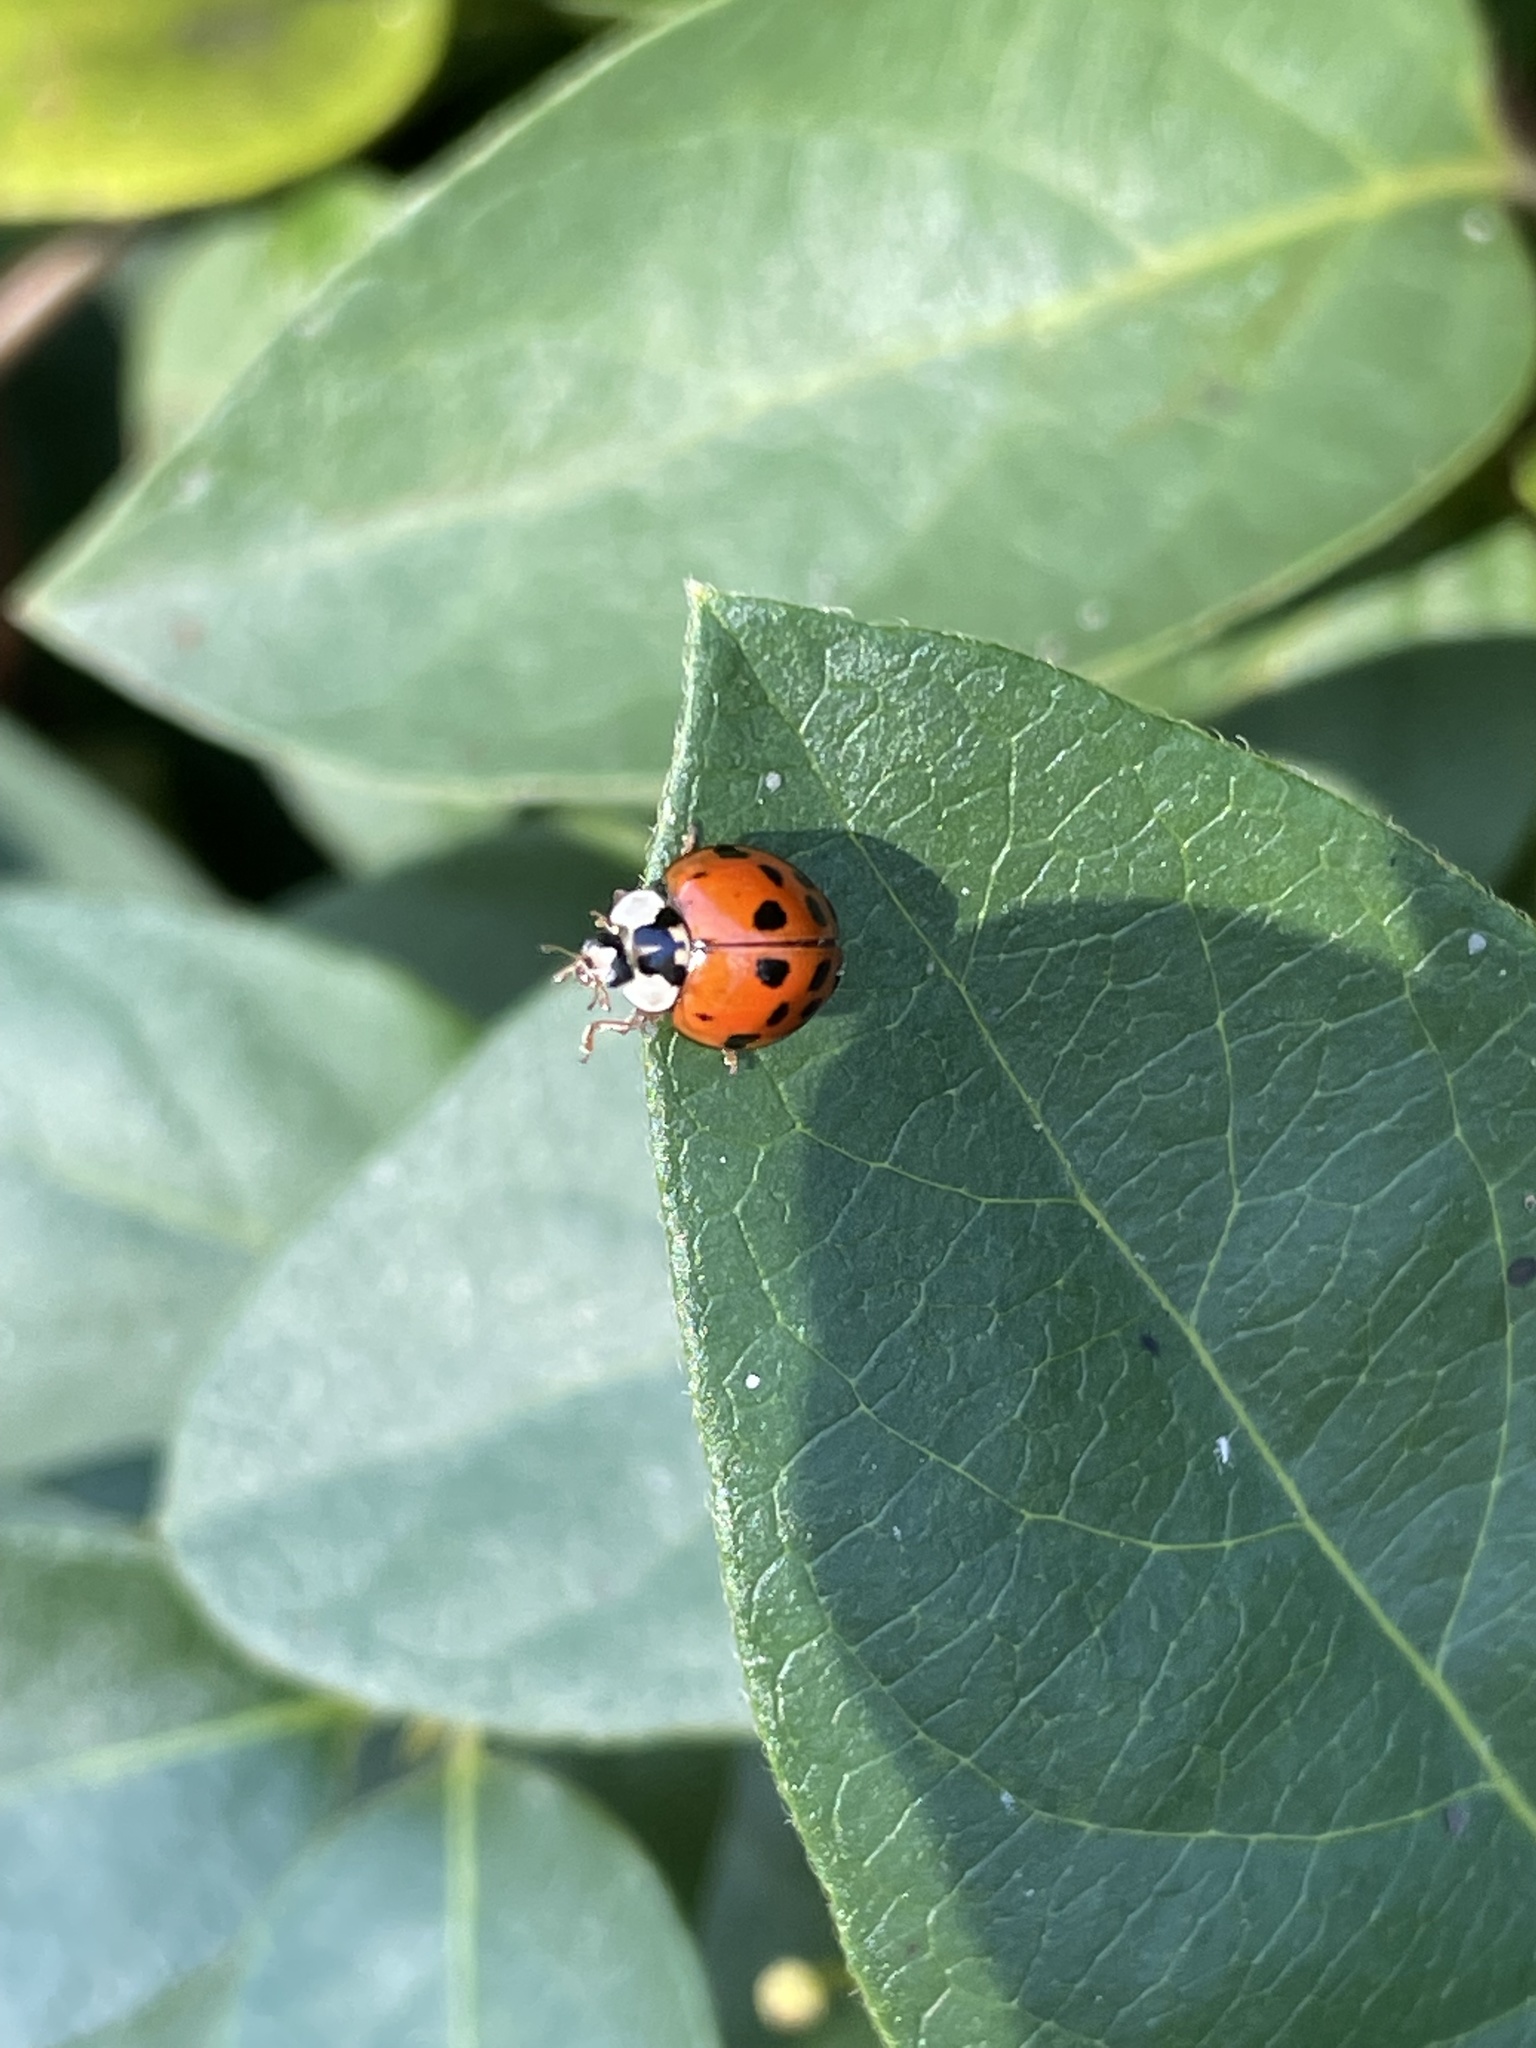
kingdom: Animalia
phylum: Arthropoda
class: Insecta
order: Coleoptera
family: Coccinellidae
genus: Harmonia
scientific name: Harmonia axyridis
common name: Harlequin ladybird
